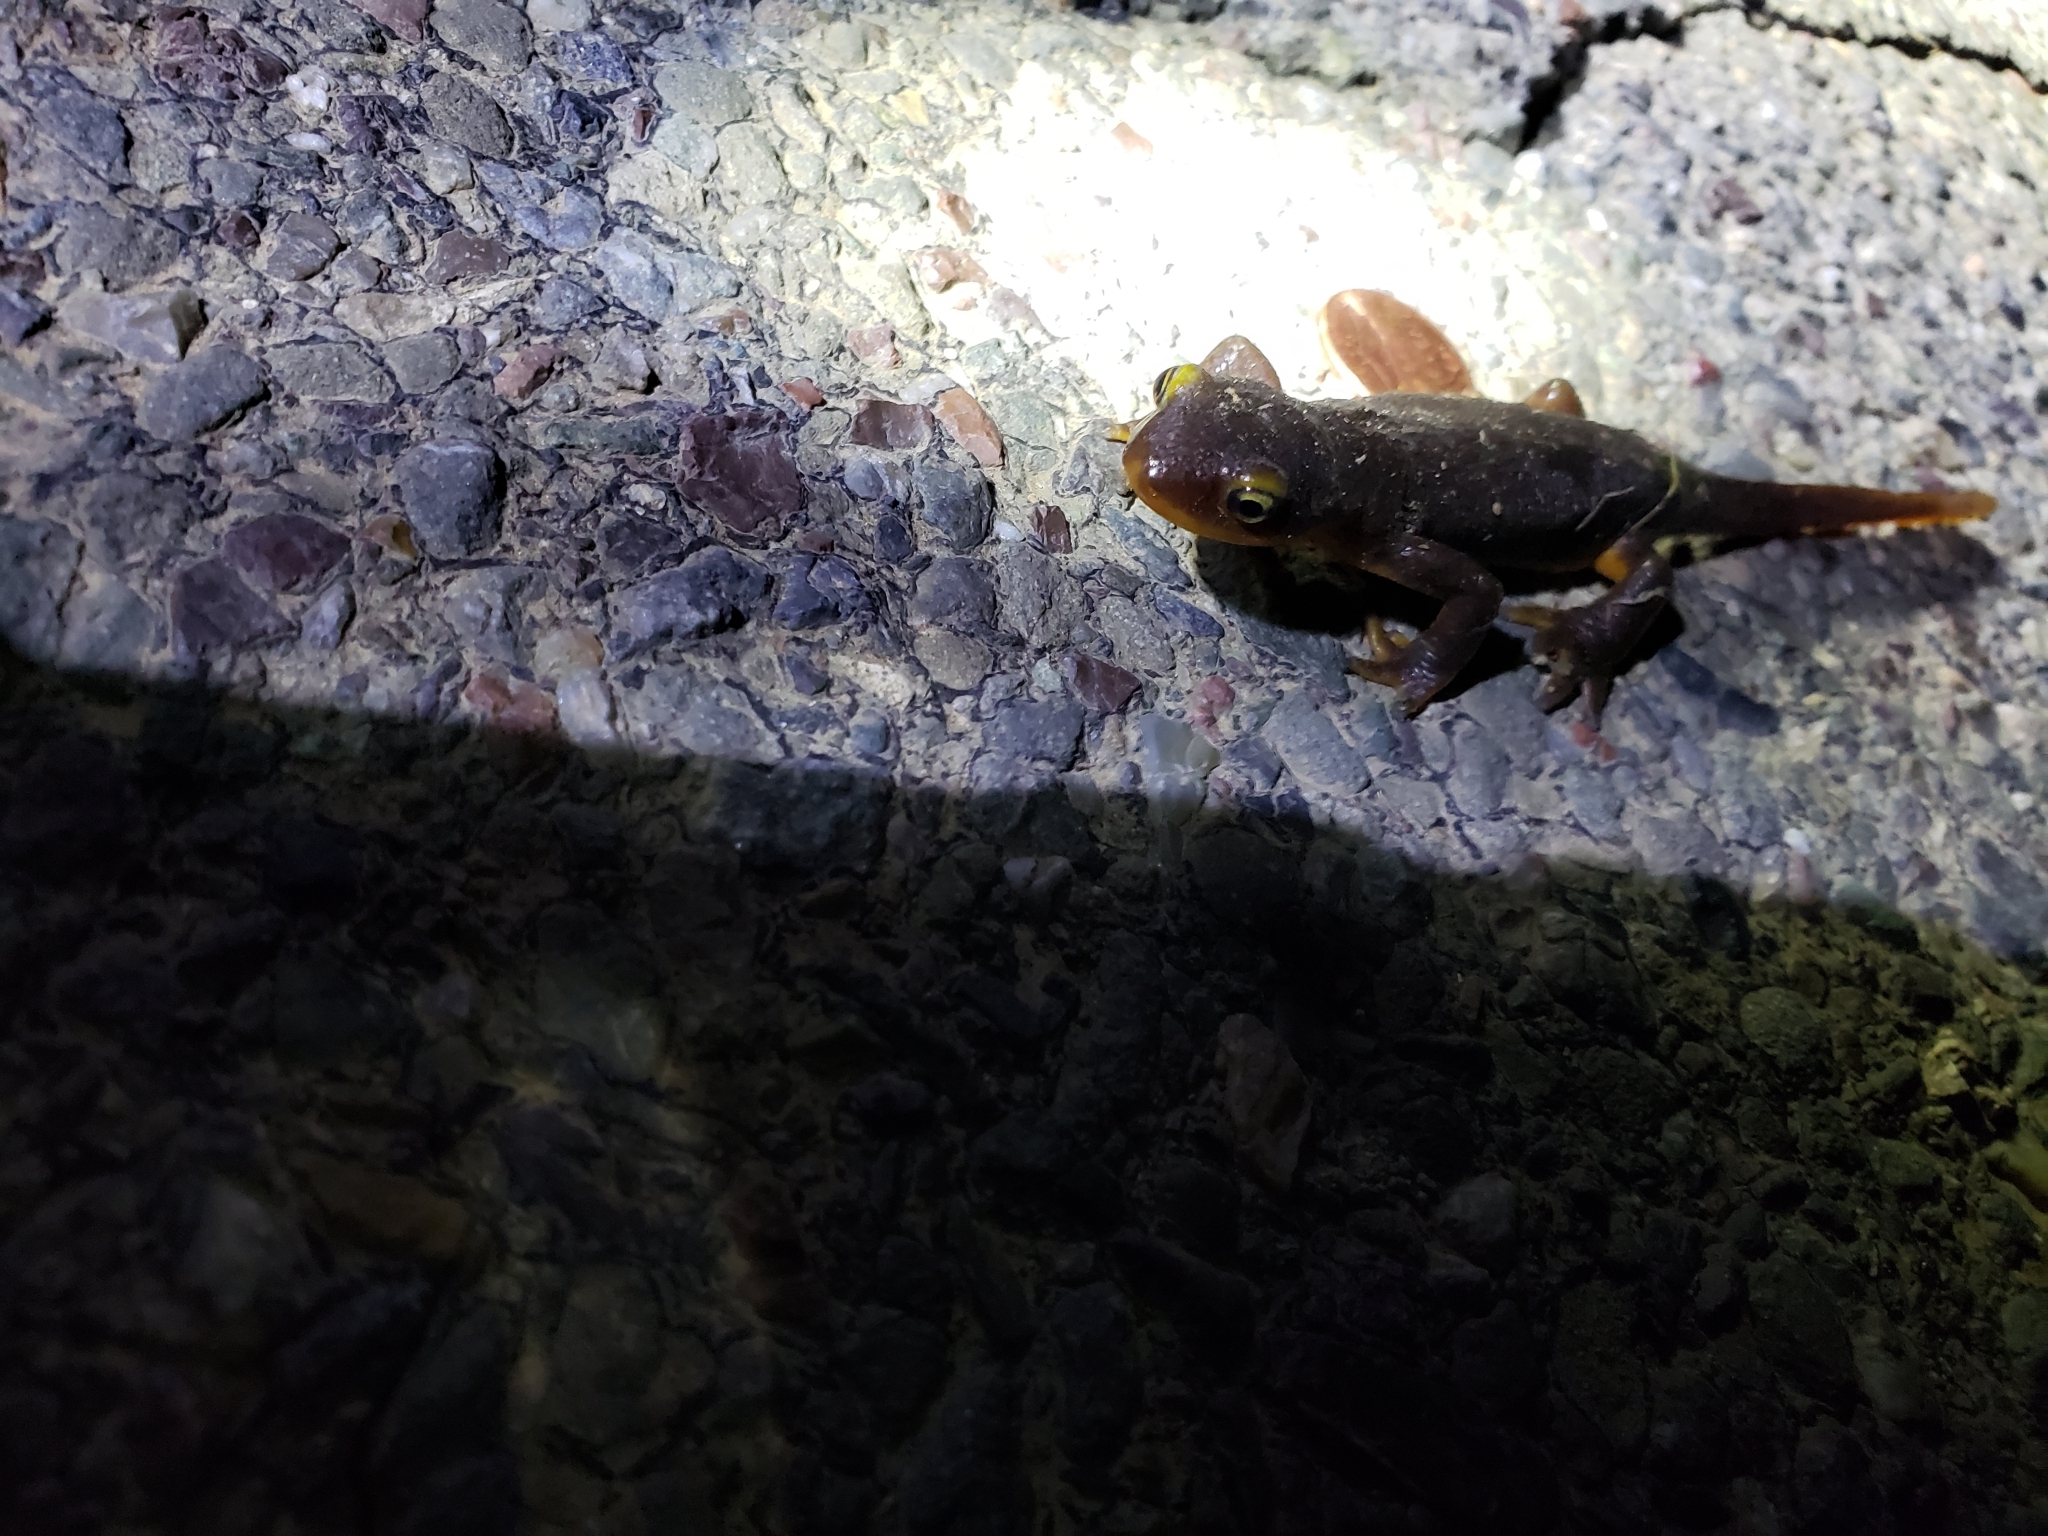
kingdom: Animalia
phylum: Chordata
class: Amphibia
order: Caudata
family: Salamandridae
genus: Taricha
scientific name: Taricha torosa
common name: California newt
